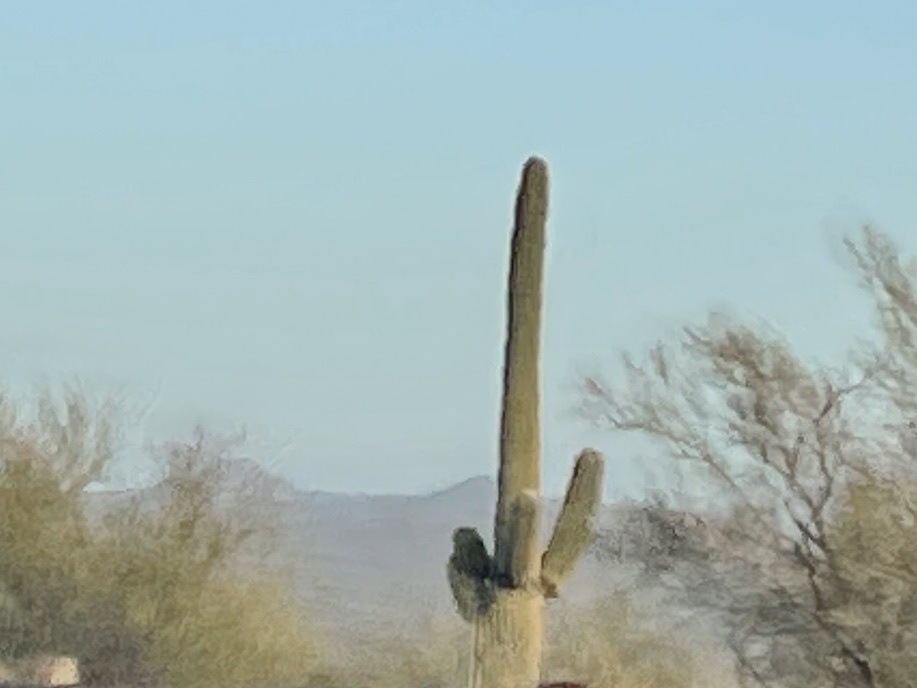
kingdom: Plantae
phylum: Tracheophyta
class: Magnoliopsida
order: Caryophyllales
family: Cactaceae
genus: Carnegiea
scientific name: Carnegiea gigantea
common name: Saguaro
